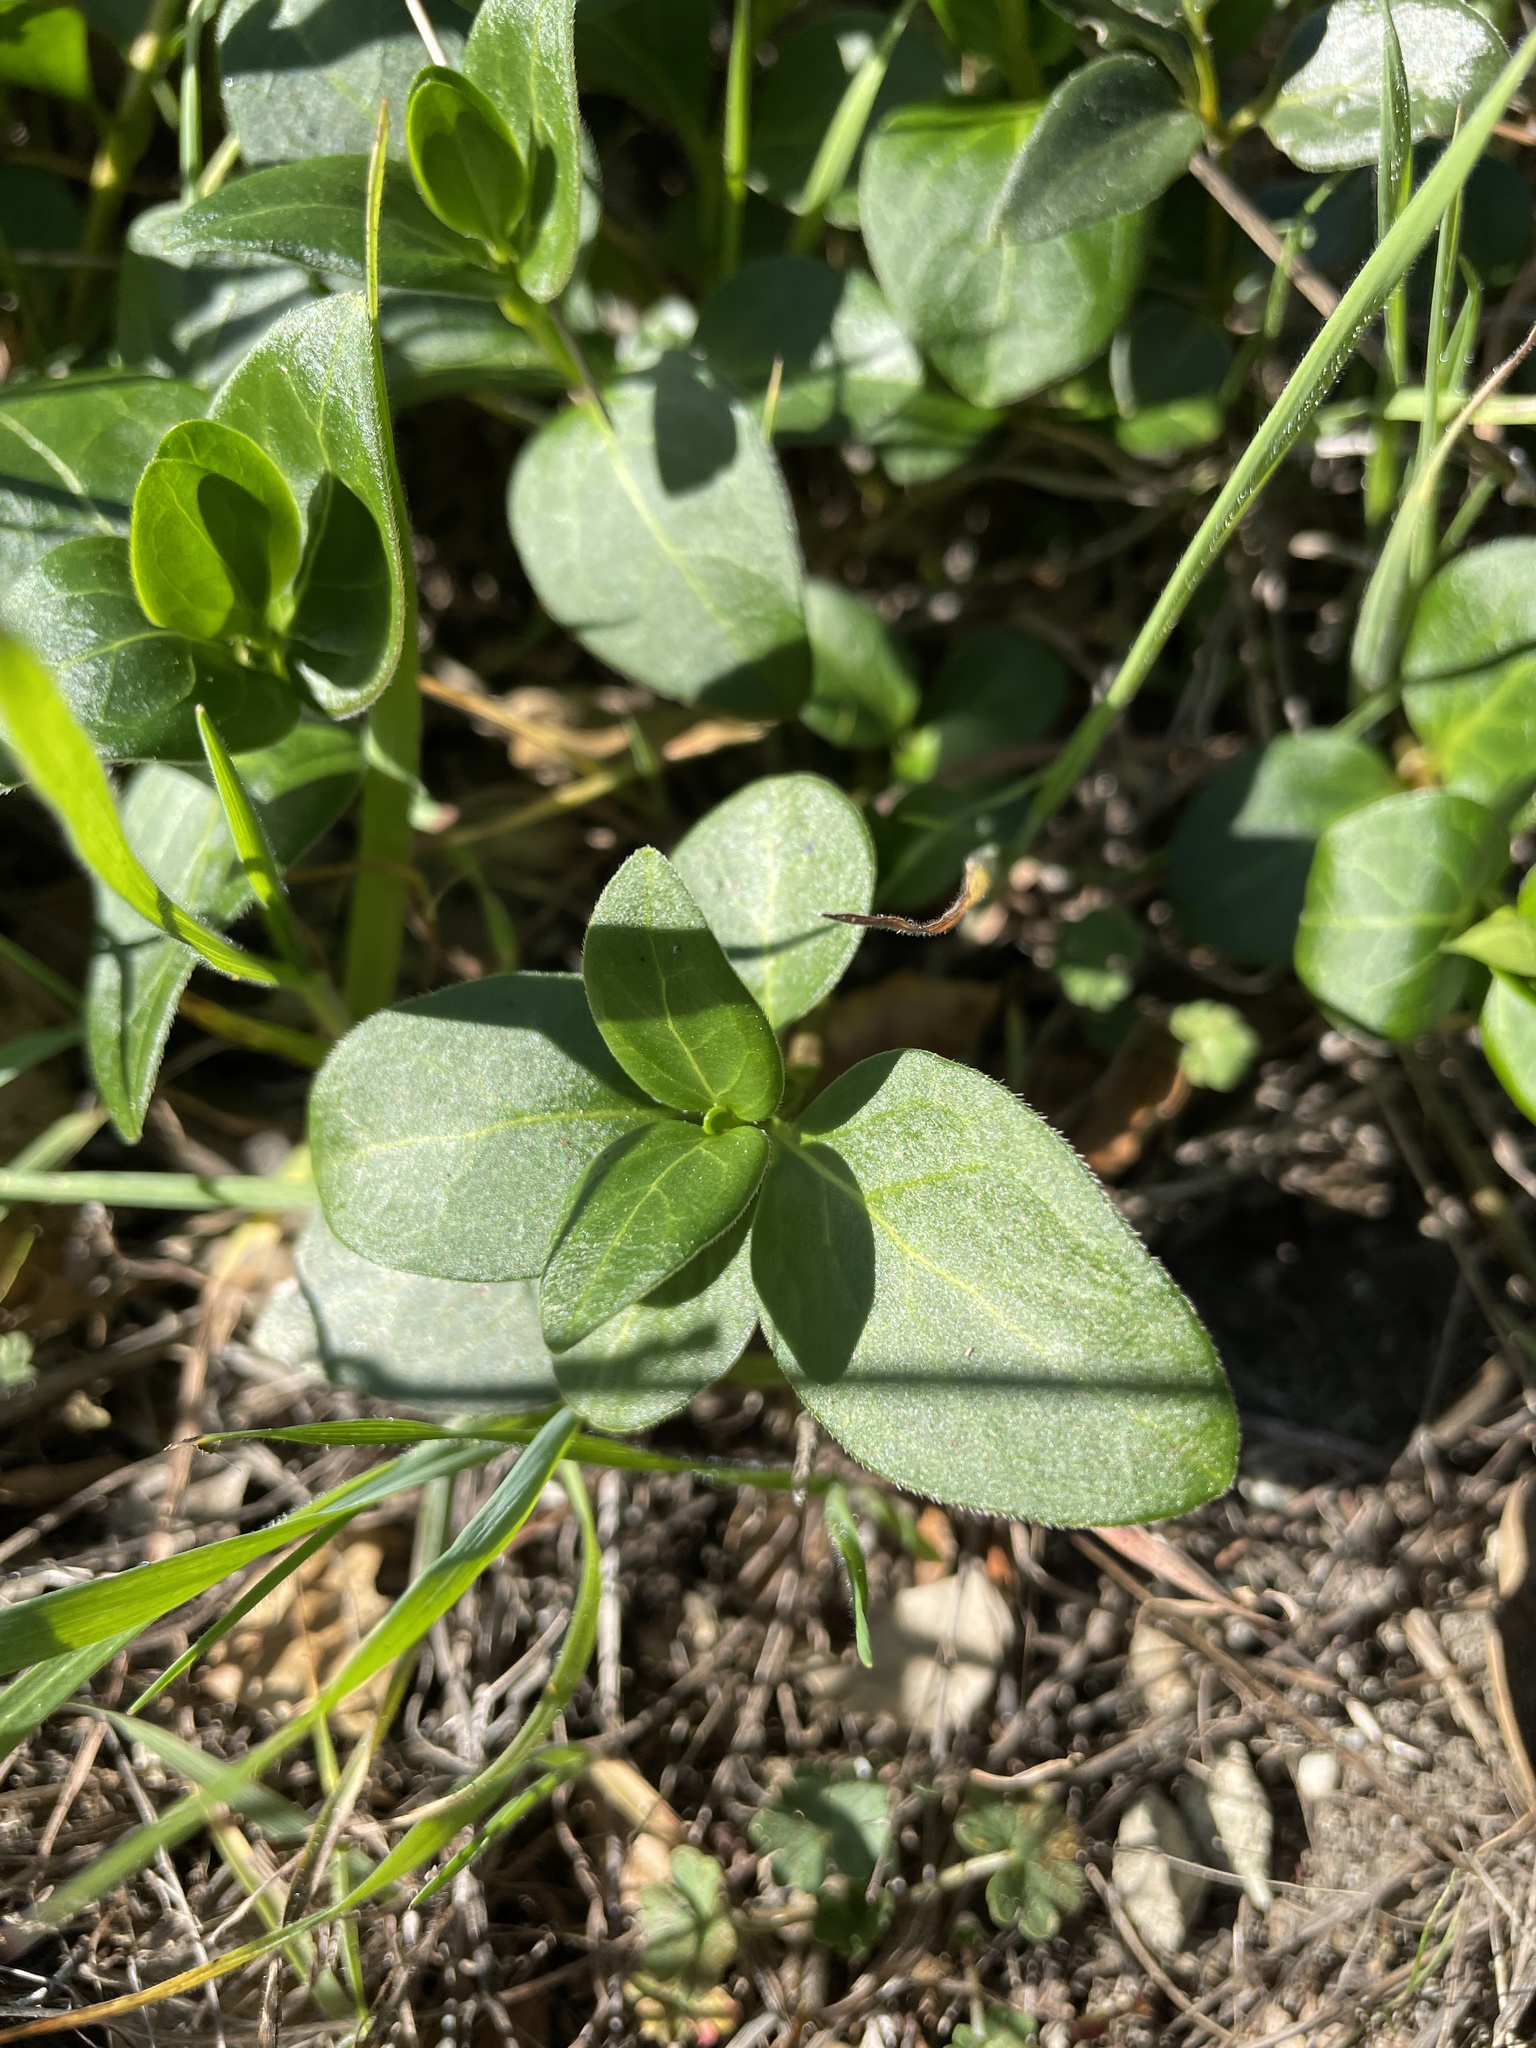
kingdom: Plantae
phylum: Tracheophyta
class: Magnoliopsida
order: Gentianales
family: Apocynaceae
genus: Vinca
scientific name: Vinca major
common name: Greater periwinkle
